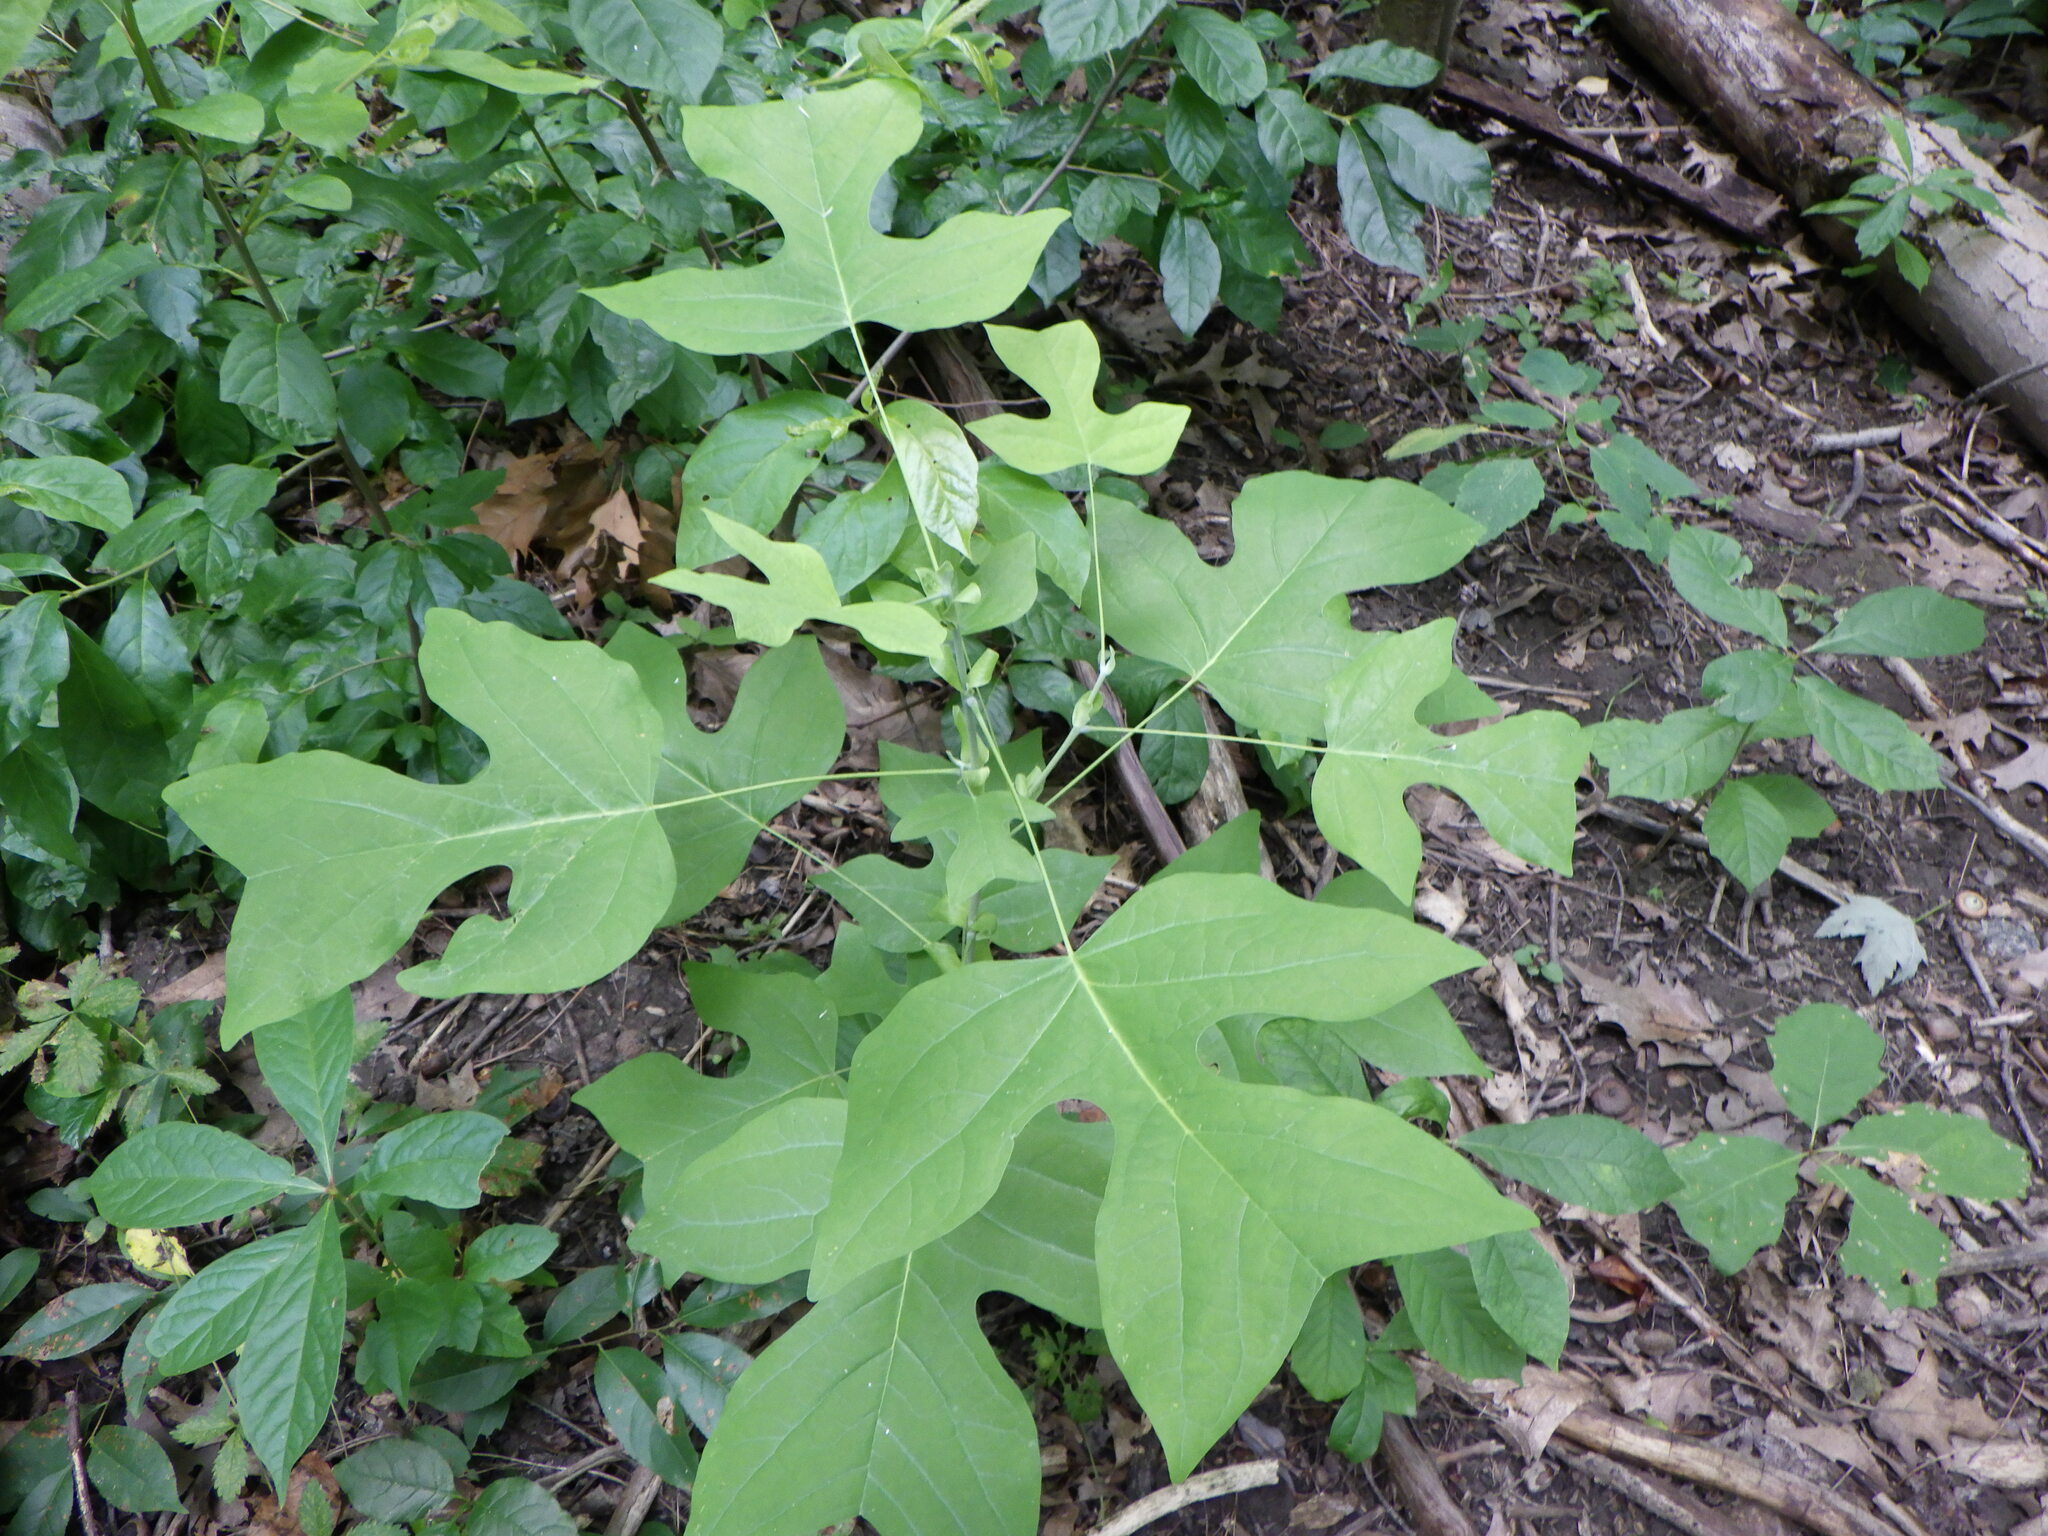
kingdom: Plantae
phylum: Tracheophyta
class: Magnoliopsida
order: Magnoliales
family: Magnoliaceae
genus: Liriodendron
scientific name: Liriodendron tulipifera
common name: Tulip tree
